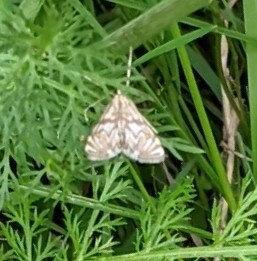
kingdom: Animalia
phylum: Arthropoda
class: Insecta
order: Lepidoptera
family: Crambidae
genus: Neocataclysta
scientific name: Neocataclysta magnificalis
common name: Scrollwork pyralid moth
